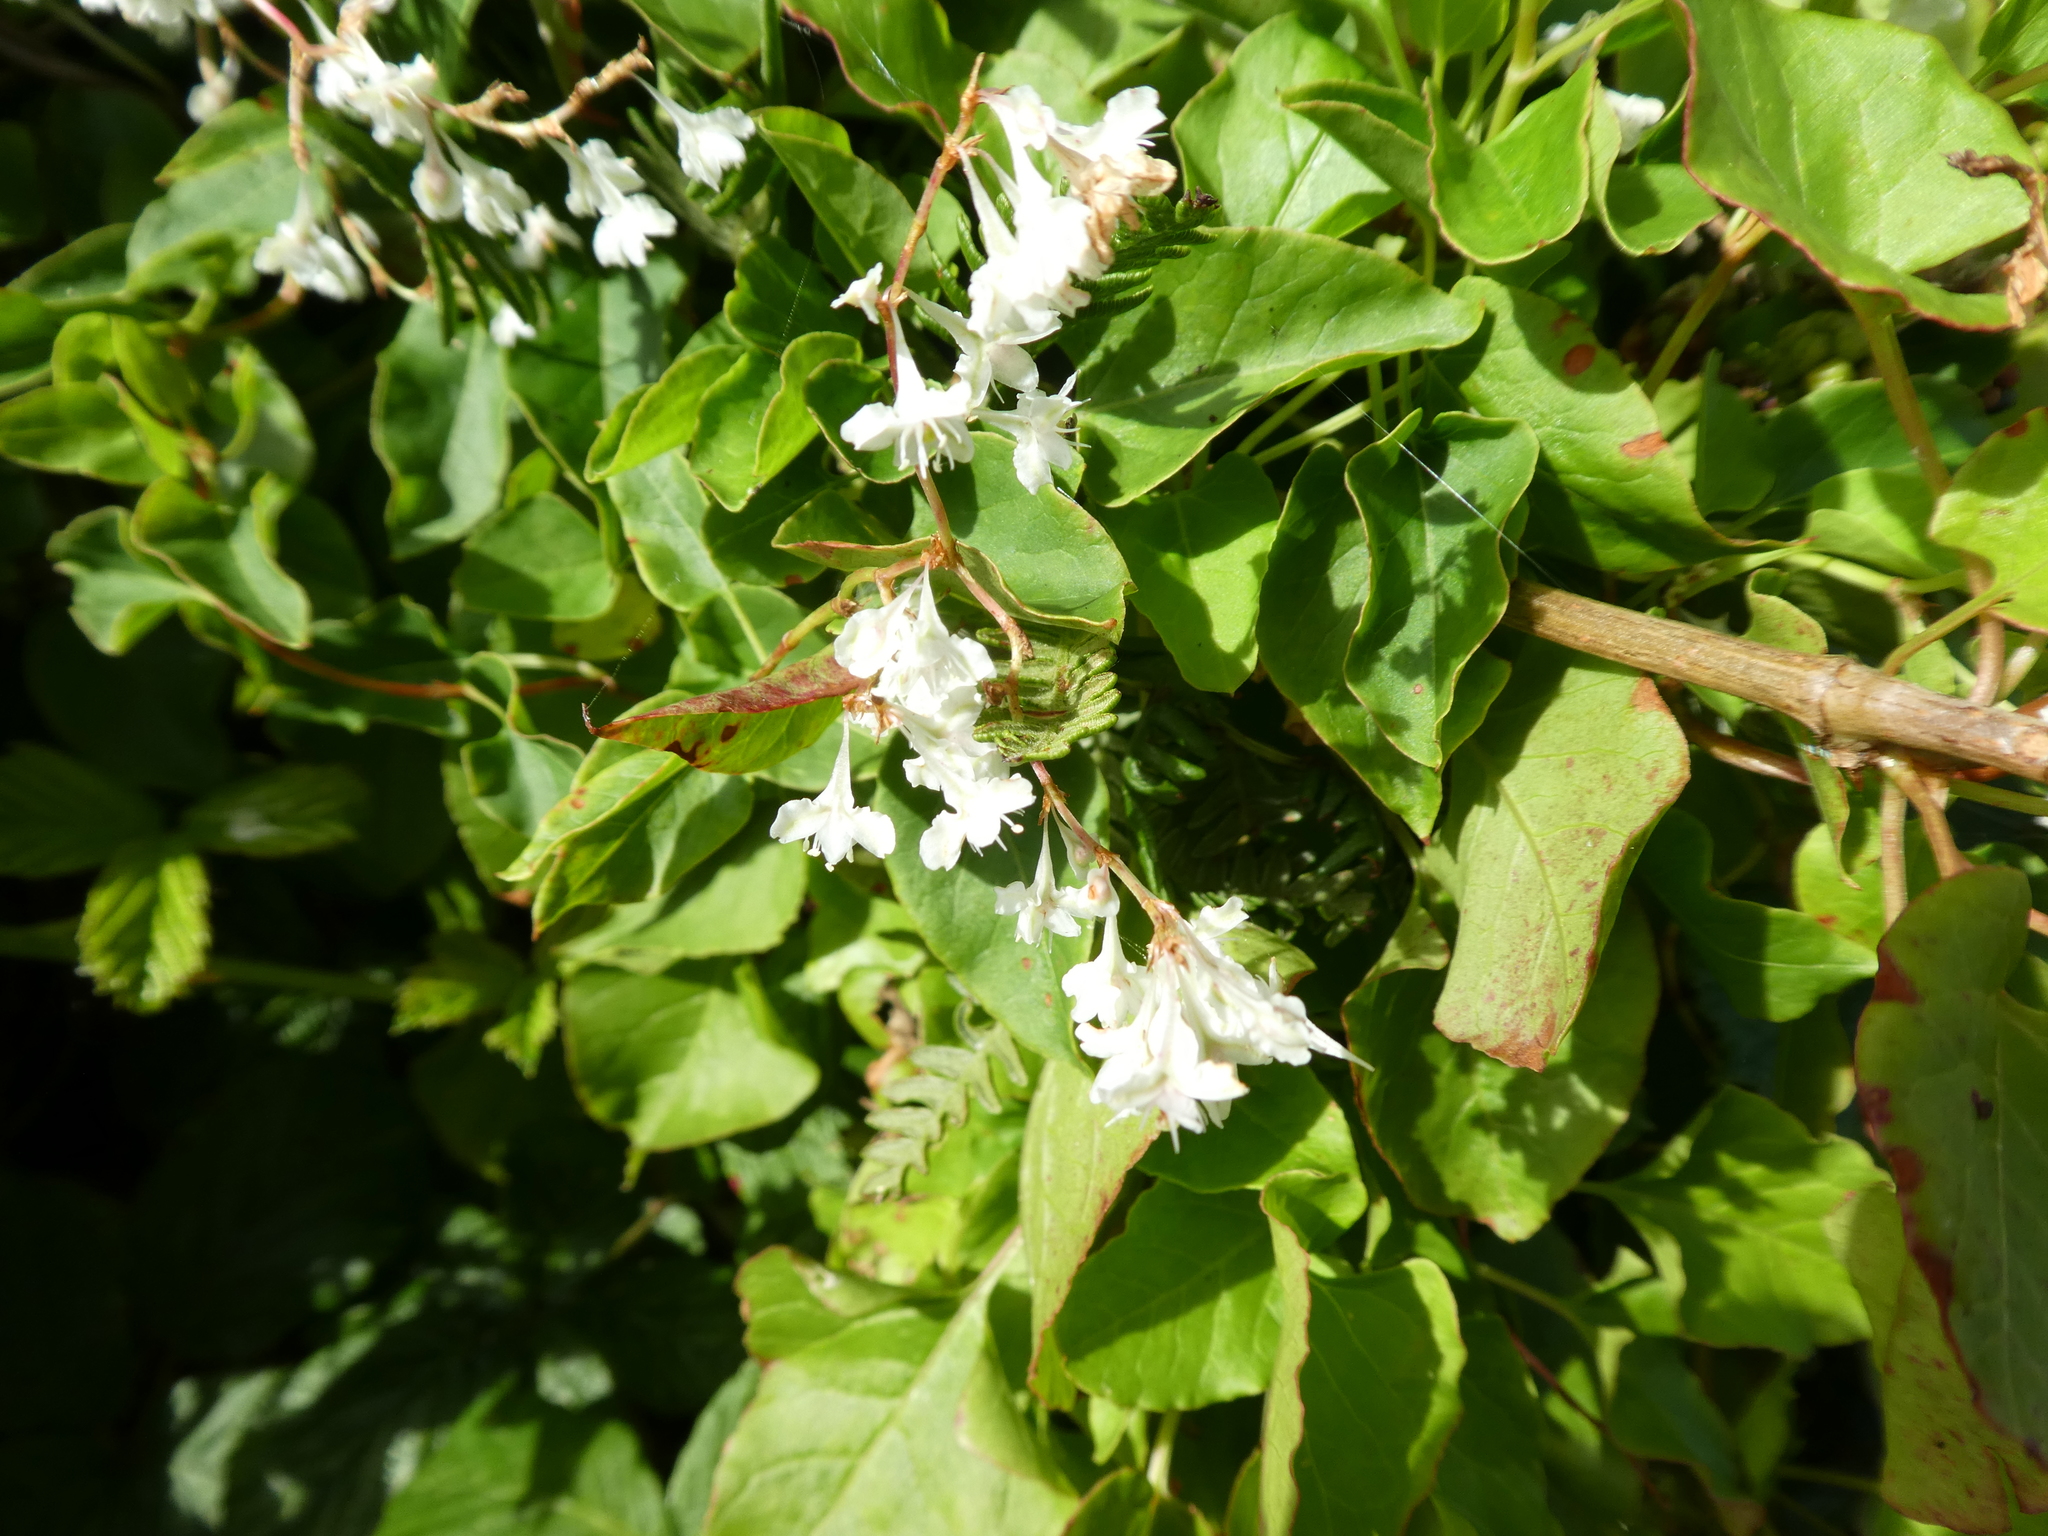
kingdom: Plantae
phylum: Tracheophyta
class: Magnoliopsida
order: Caryophyllales
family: Polygonaceae
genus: Fallopia
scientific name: Fallopia baldschuanica
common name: Russian-vine
